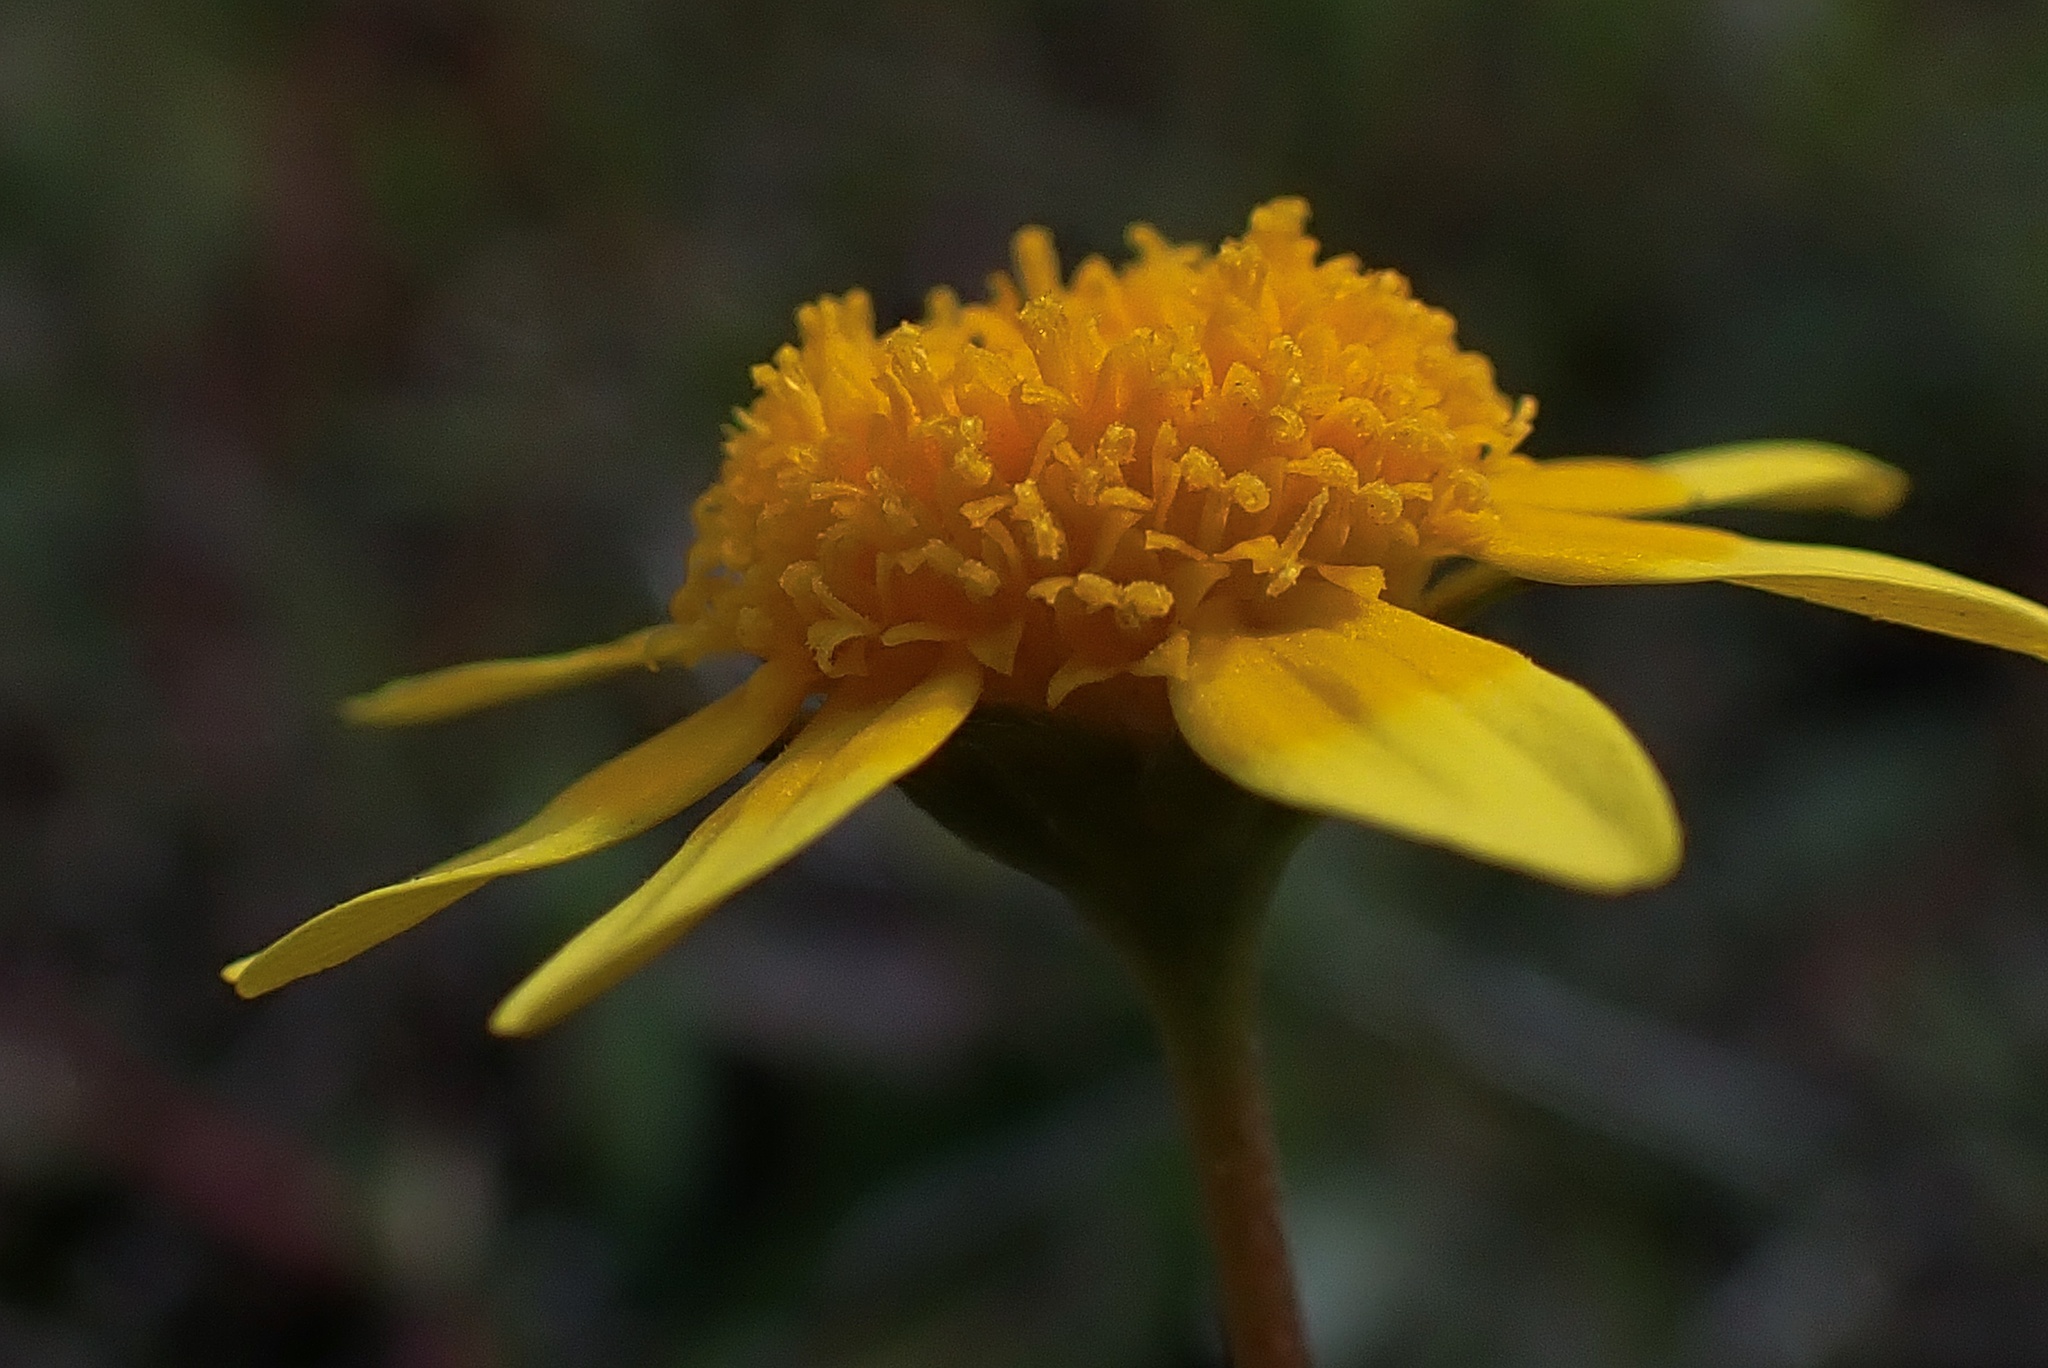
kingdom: Plantae
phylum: Tracheophyta
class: Magnoliopsida
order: Asterales
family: Asteraceae
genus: Lasthenia
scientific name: Lasthenia gracilis
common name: Common goldfields
